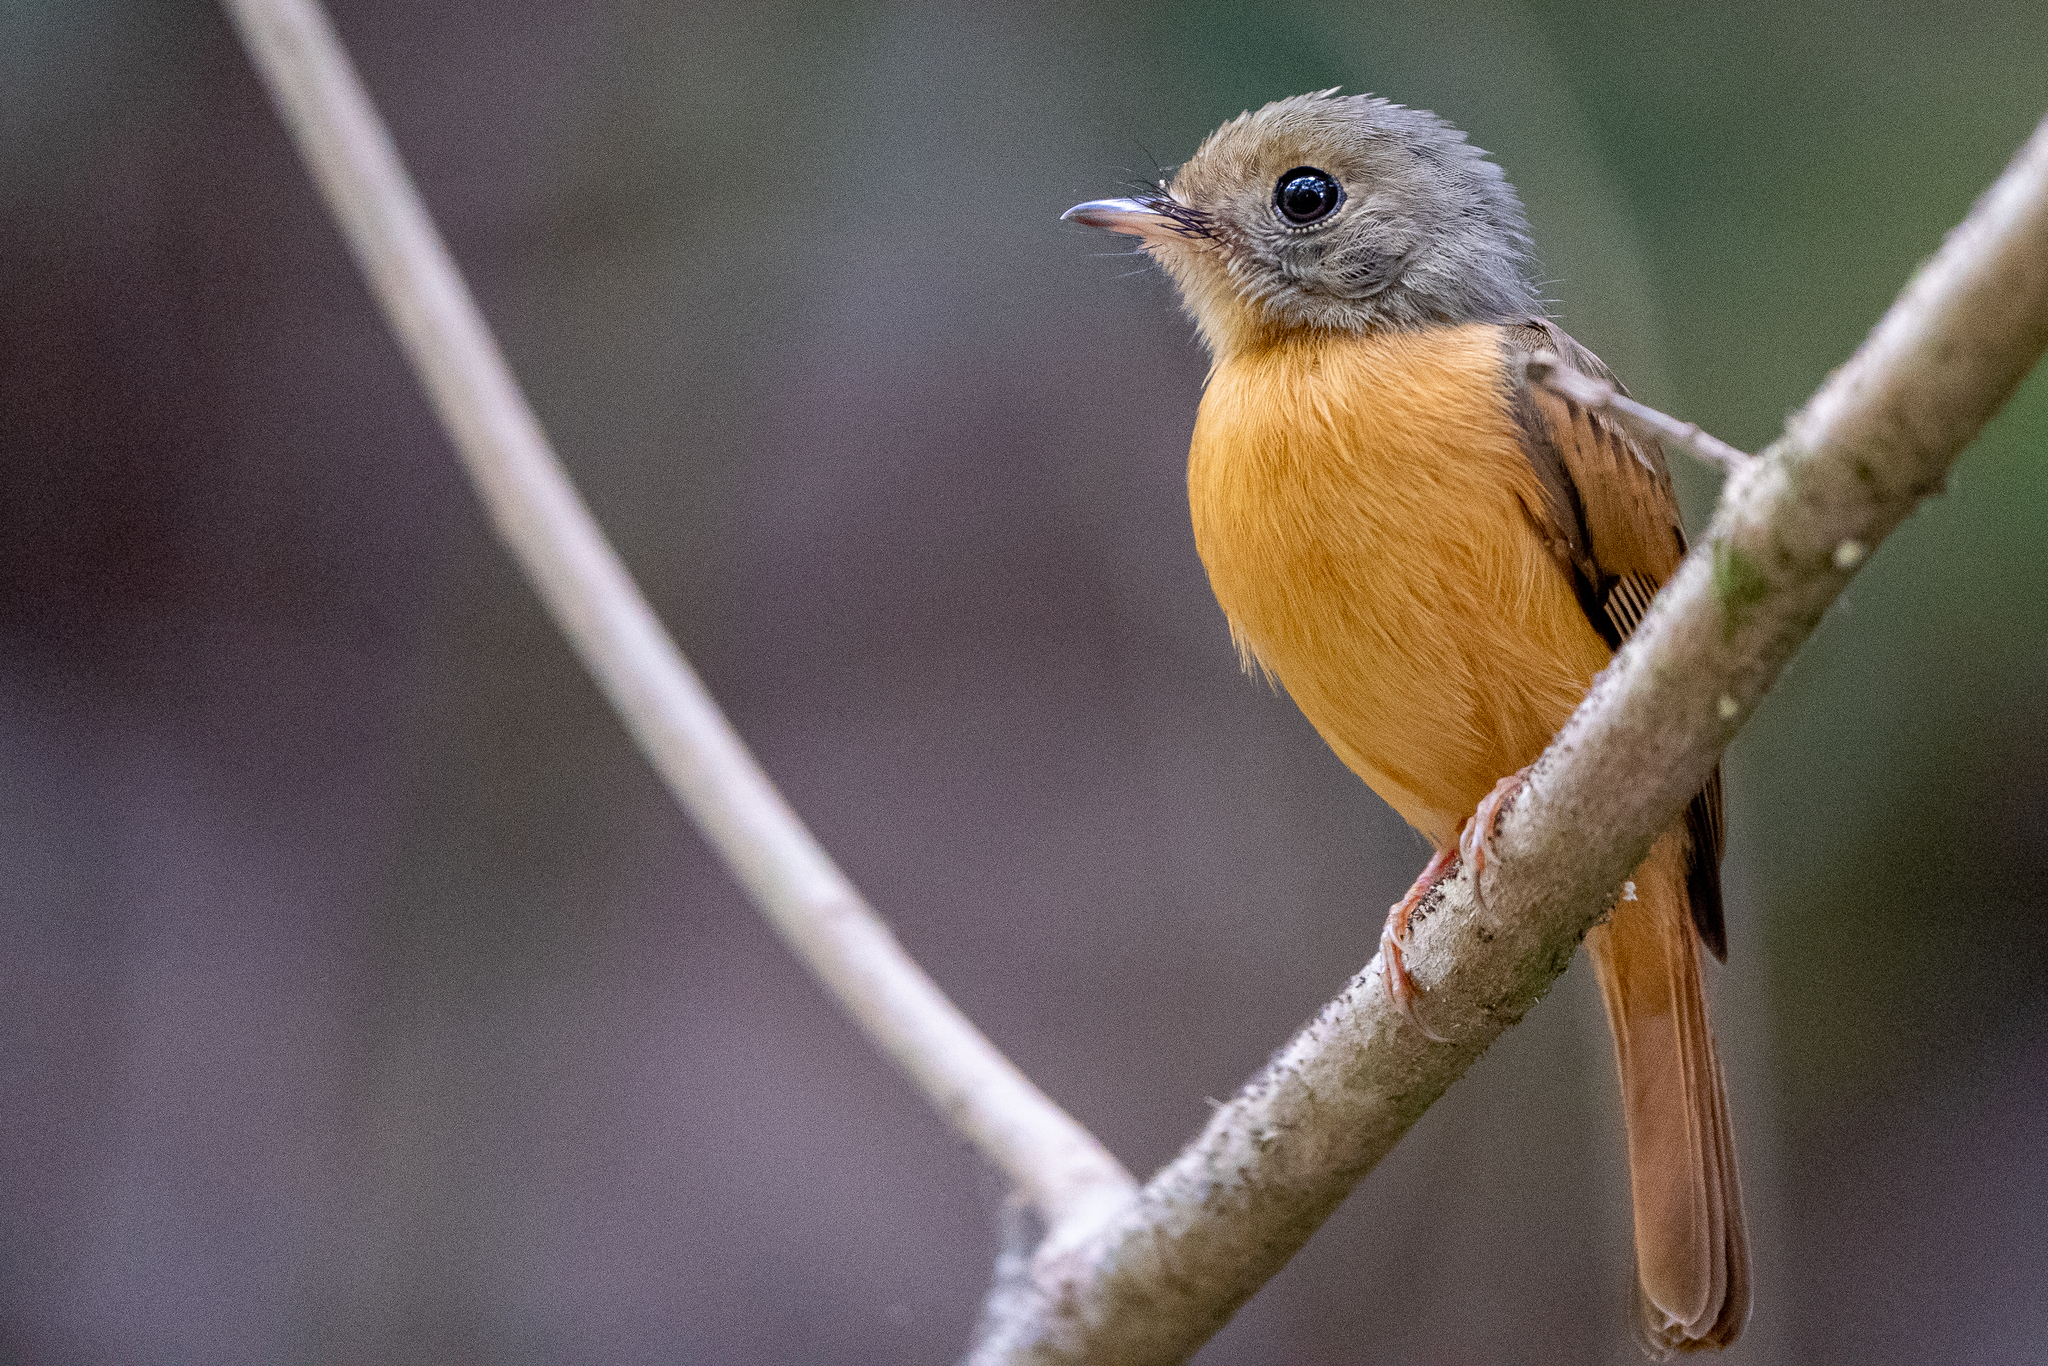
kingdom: Animalia
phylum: Chordata
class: Aves
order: Passeriformes
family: Tyrannidae
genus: Terenotriccus
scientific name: Terenotriccus erythrurus
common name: Ruddy-tailed flycatcher
